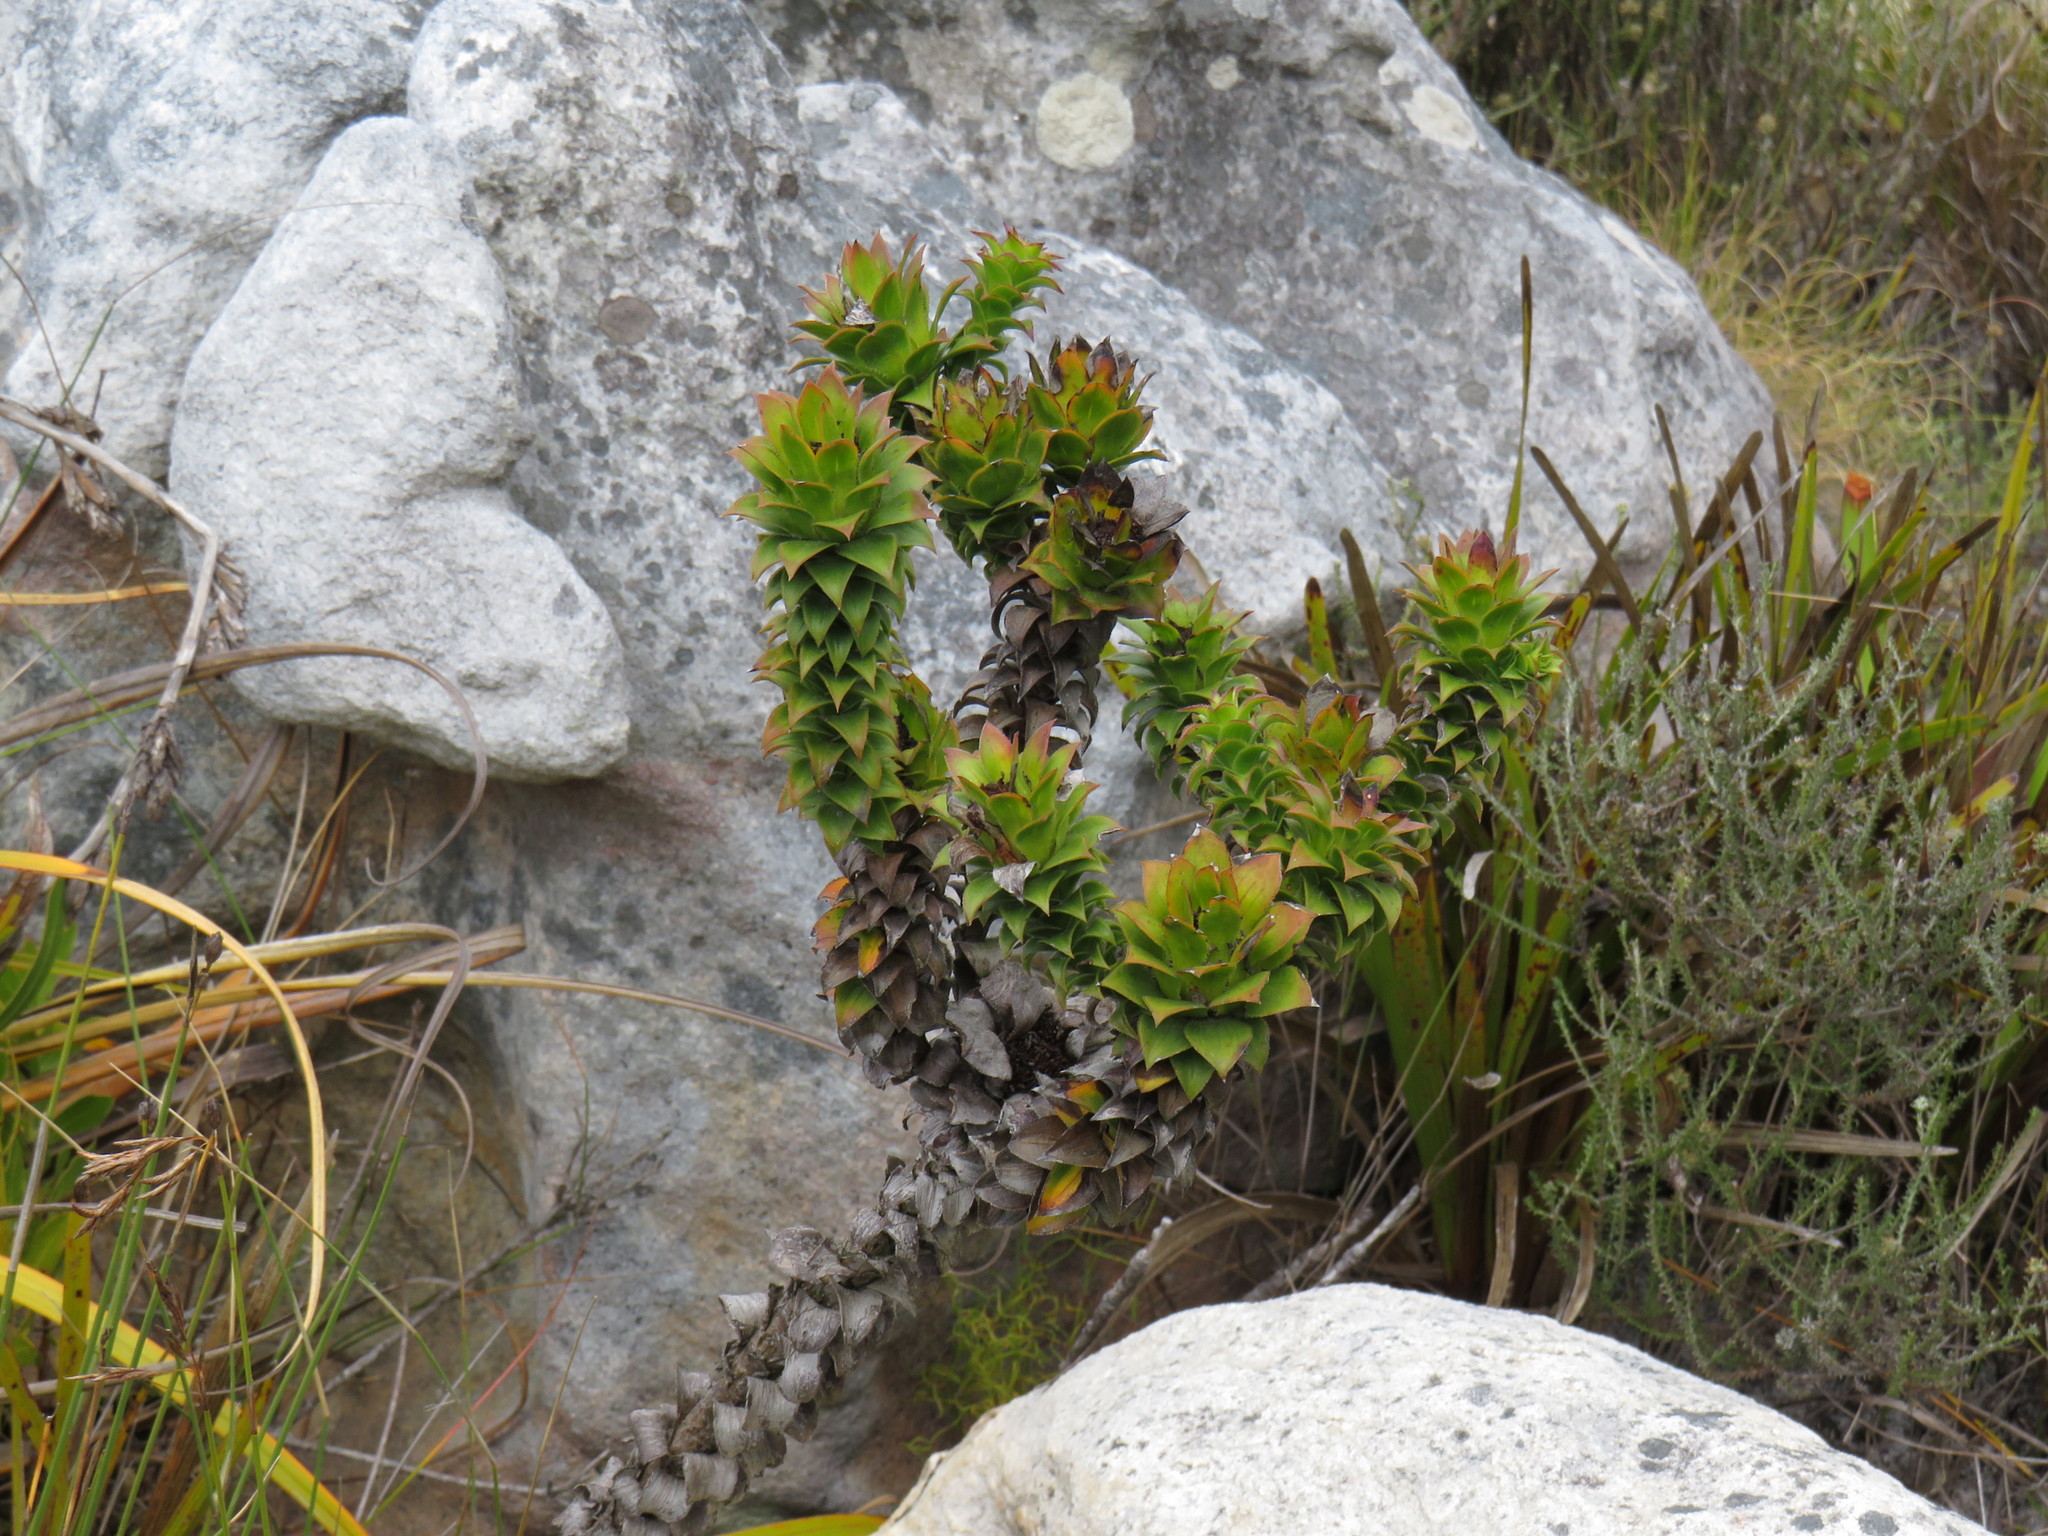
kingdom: Plantae
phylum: Tracheophyta
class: Magnoliopsida
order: Asterales
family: Asteraceae
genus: Oedera
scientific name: Oedera imbricata
